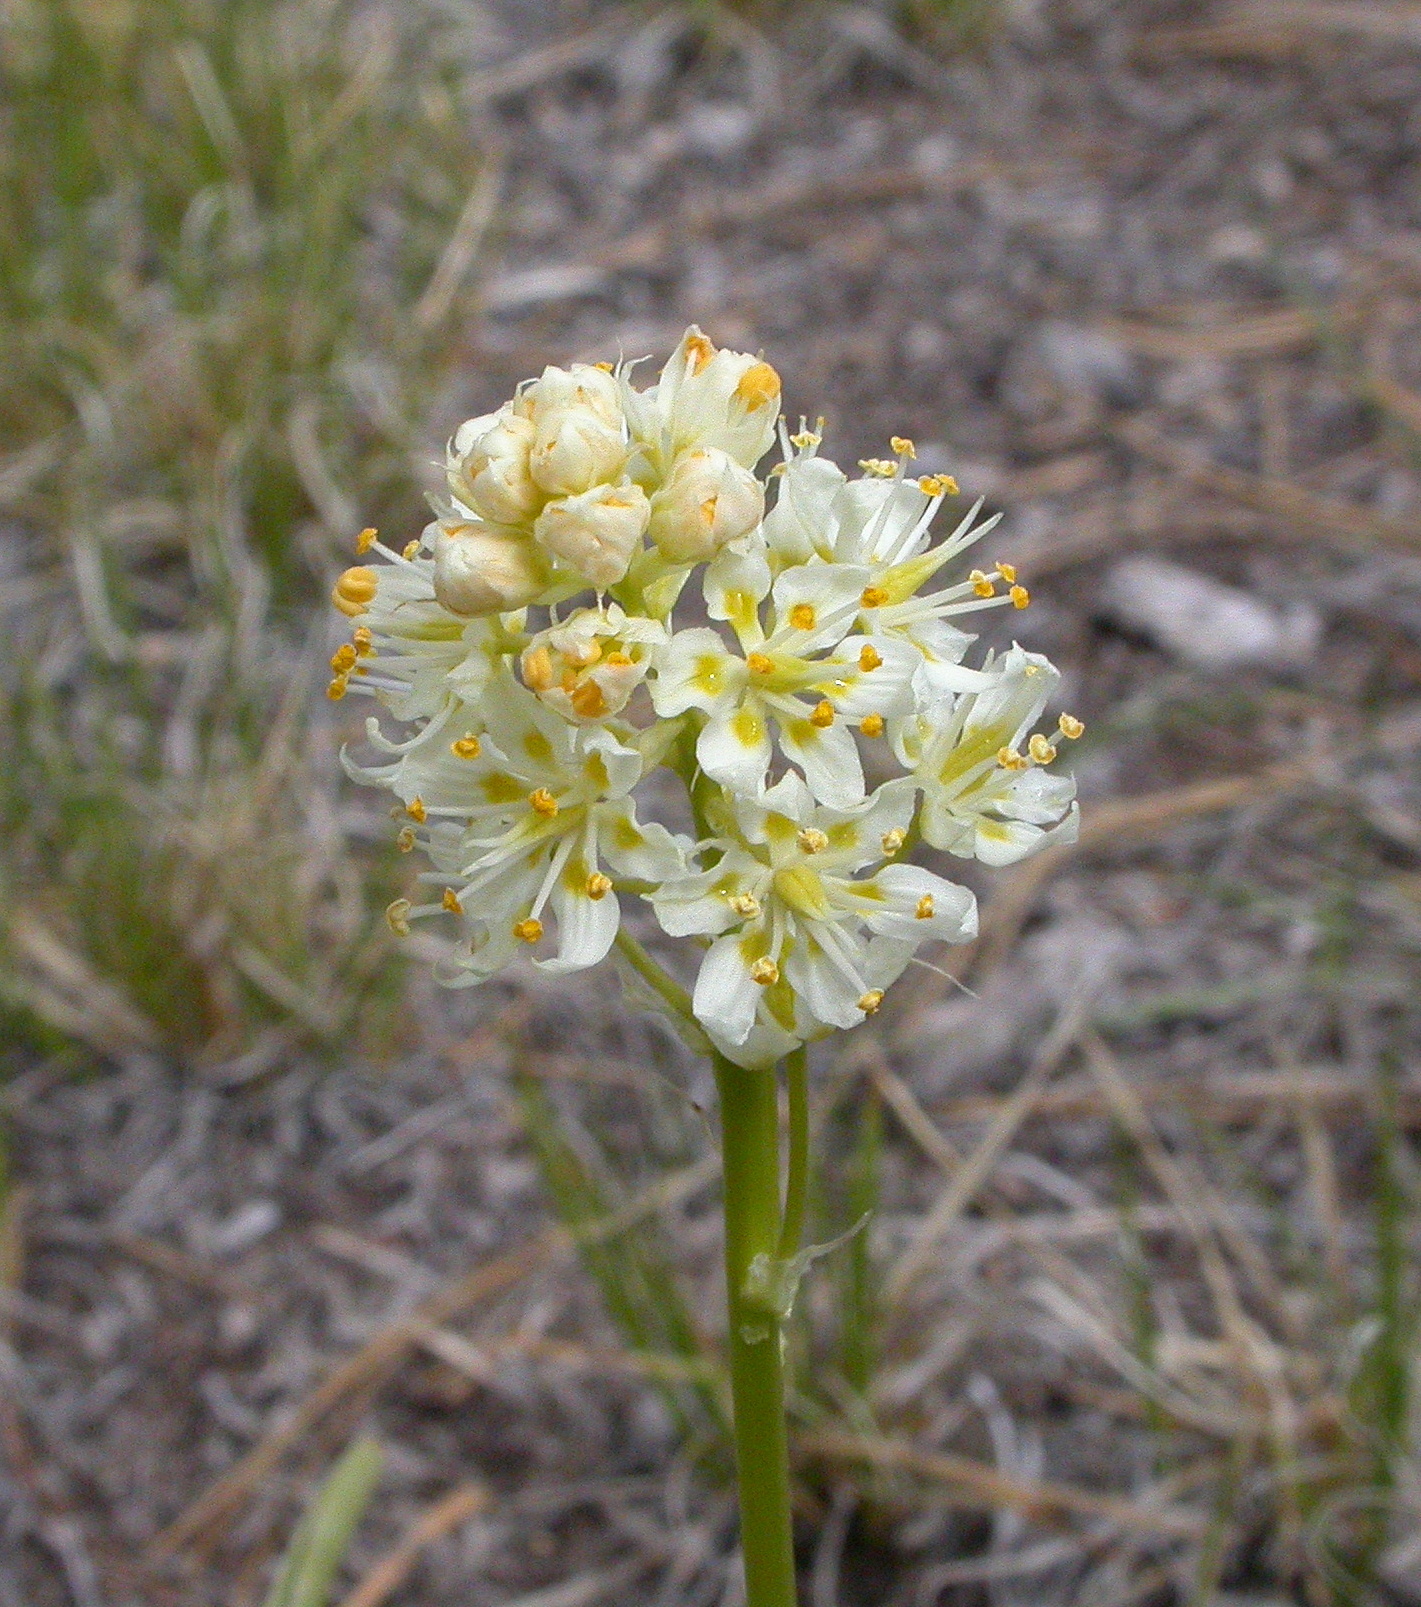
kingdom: Plantae
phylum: Tracheophyta
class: Liliopsida
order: Liliales
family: Melanthiaceae
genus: Toxicoscordion
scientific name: Toxicoscordion venenosum
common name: Meadow death camas
